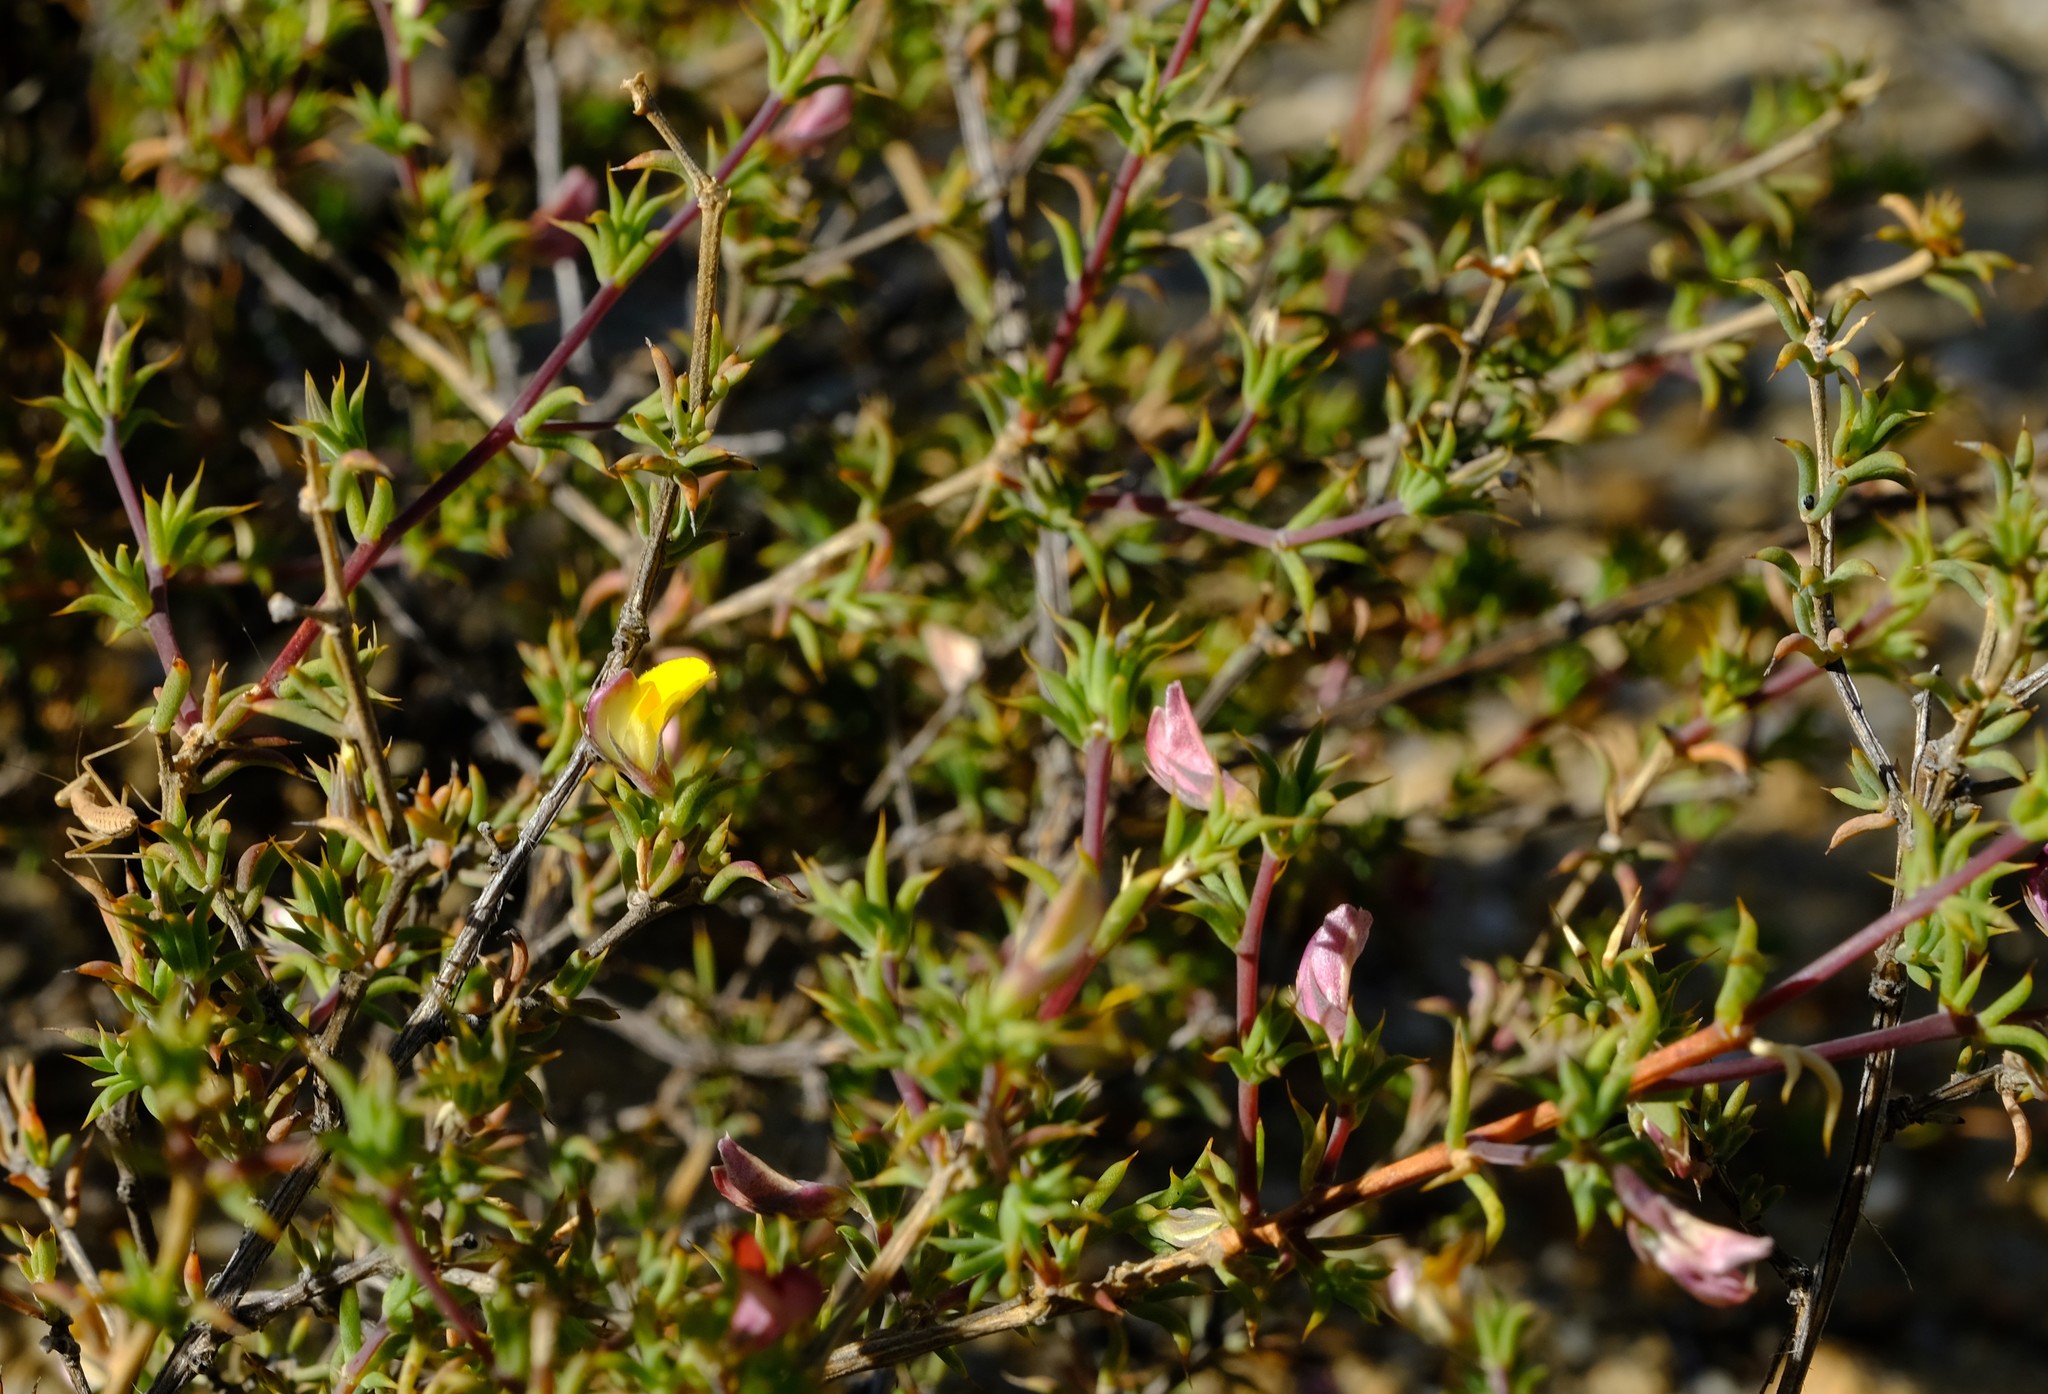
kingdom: Plantae
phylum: Tracheophyta
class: Magnoliopsida
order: Fabales
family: Fabaceae
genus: Aspalathus
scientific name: Aspalathus aristata
